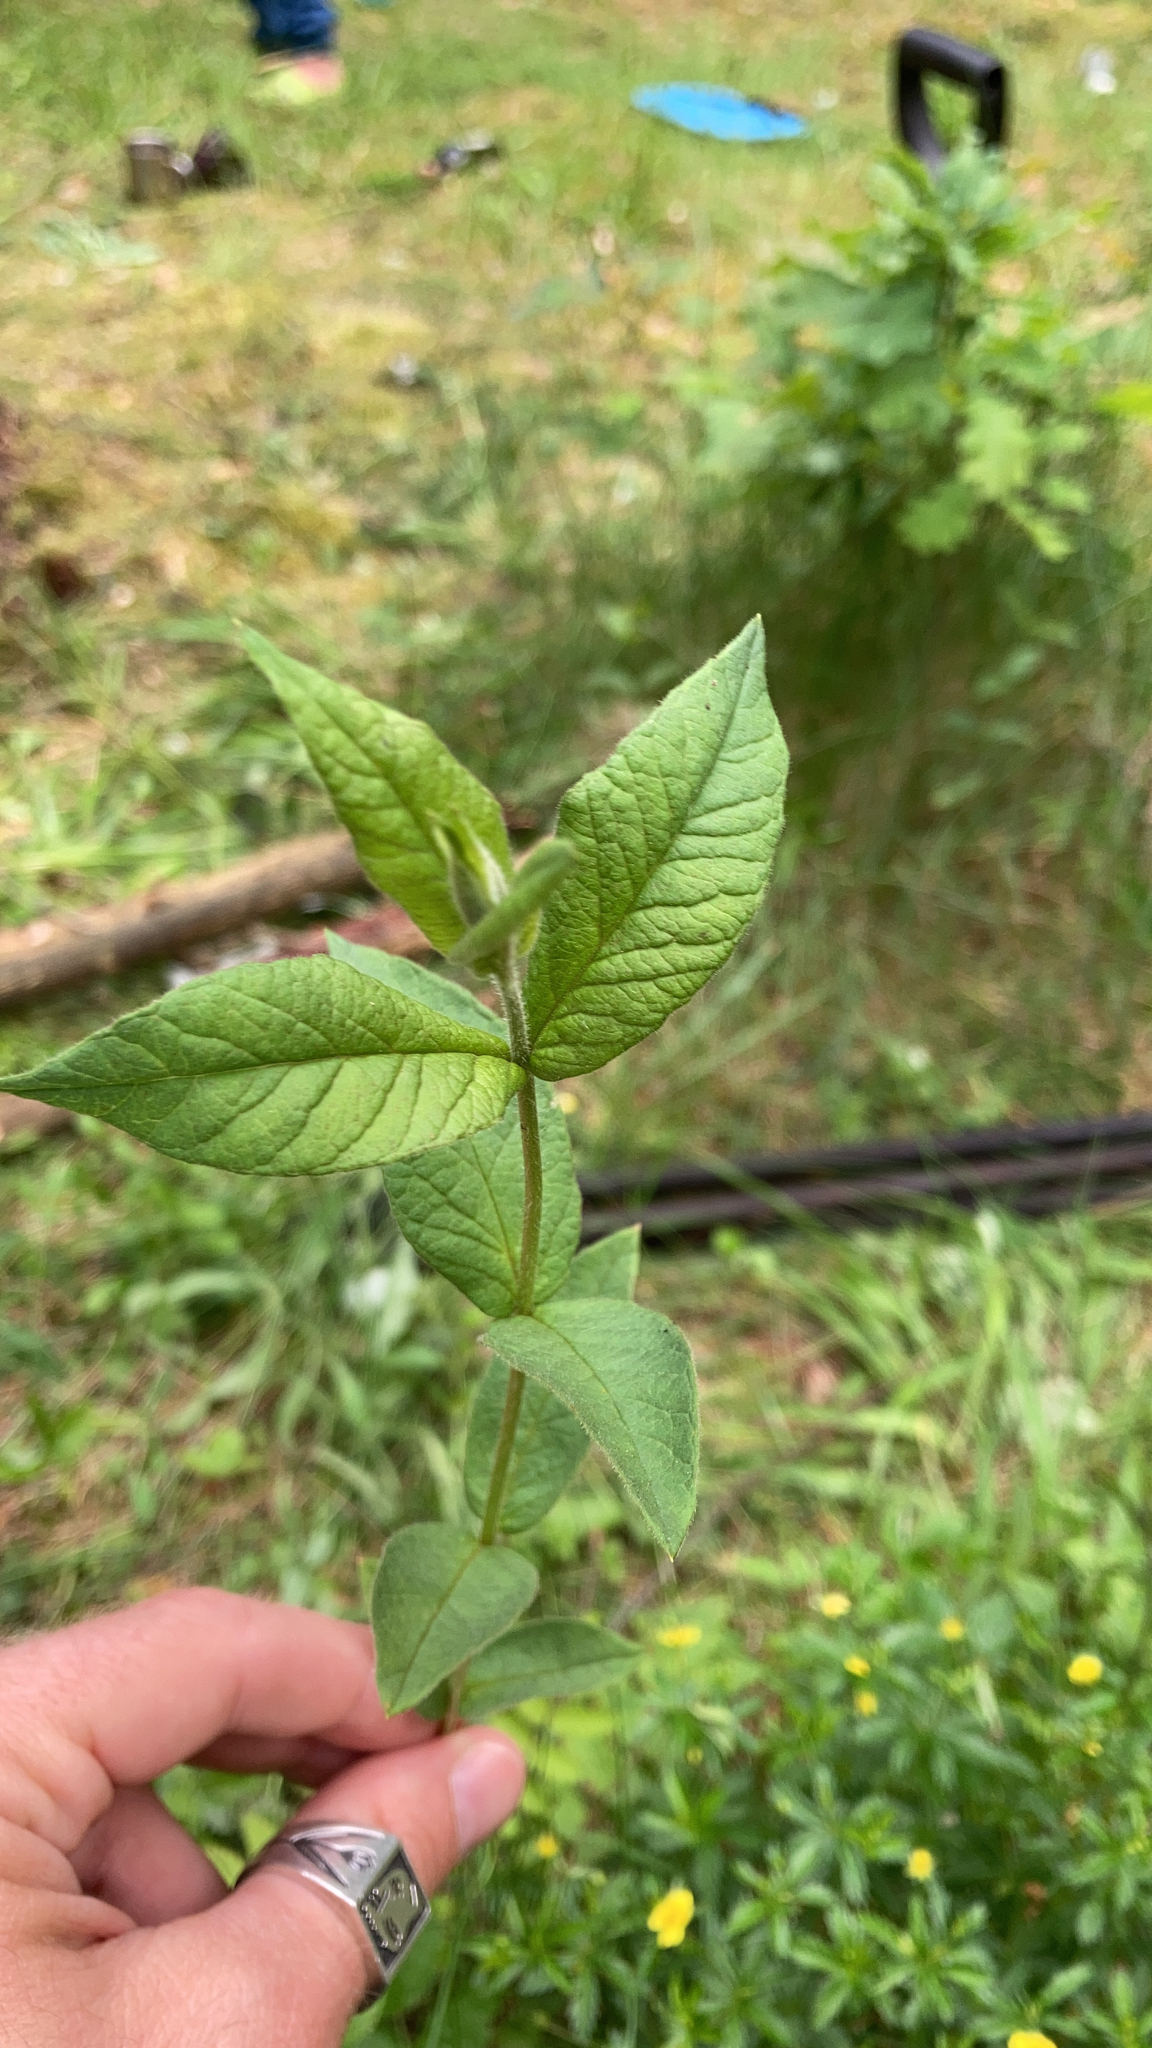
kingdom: Plantae
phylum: Tracheophyta
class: Magnoliopsida
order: Ericales
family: Primulaceae
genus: Lysimachia
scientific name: Lysimachia vulgaris
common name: Yellow loosestrife
